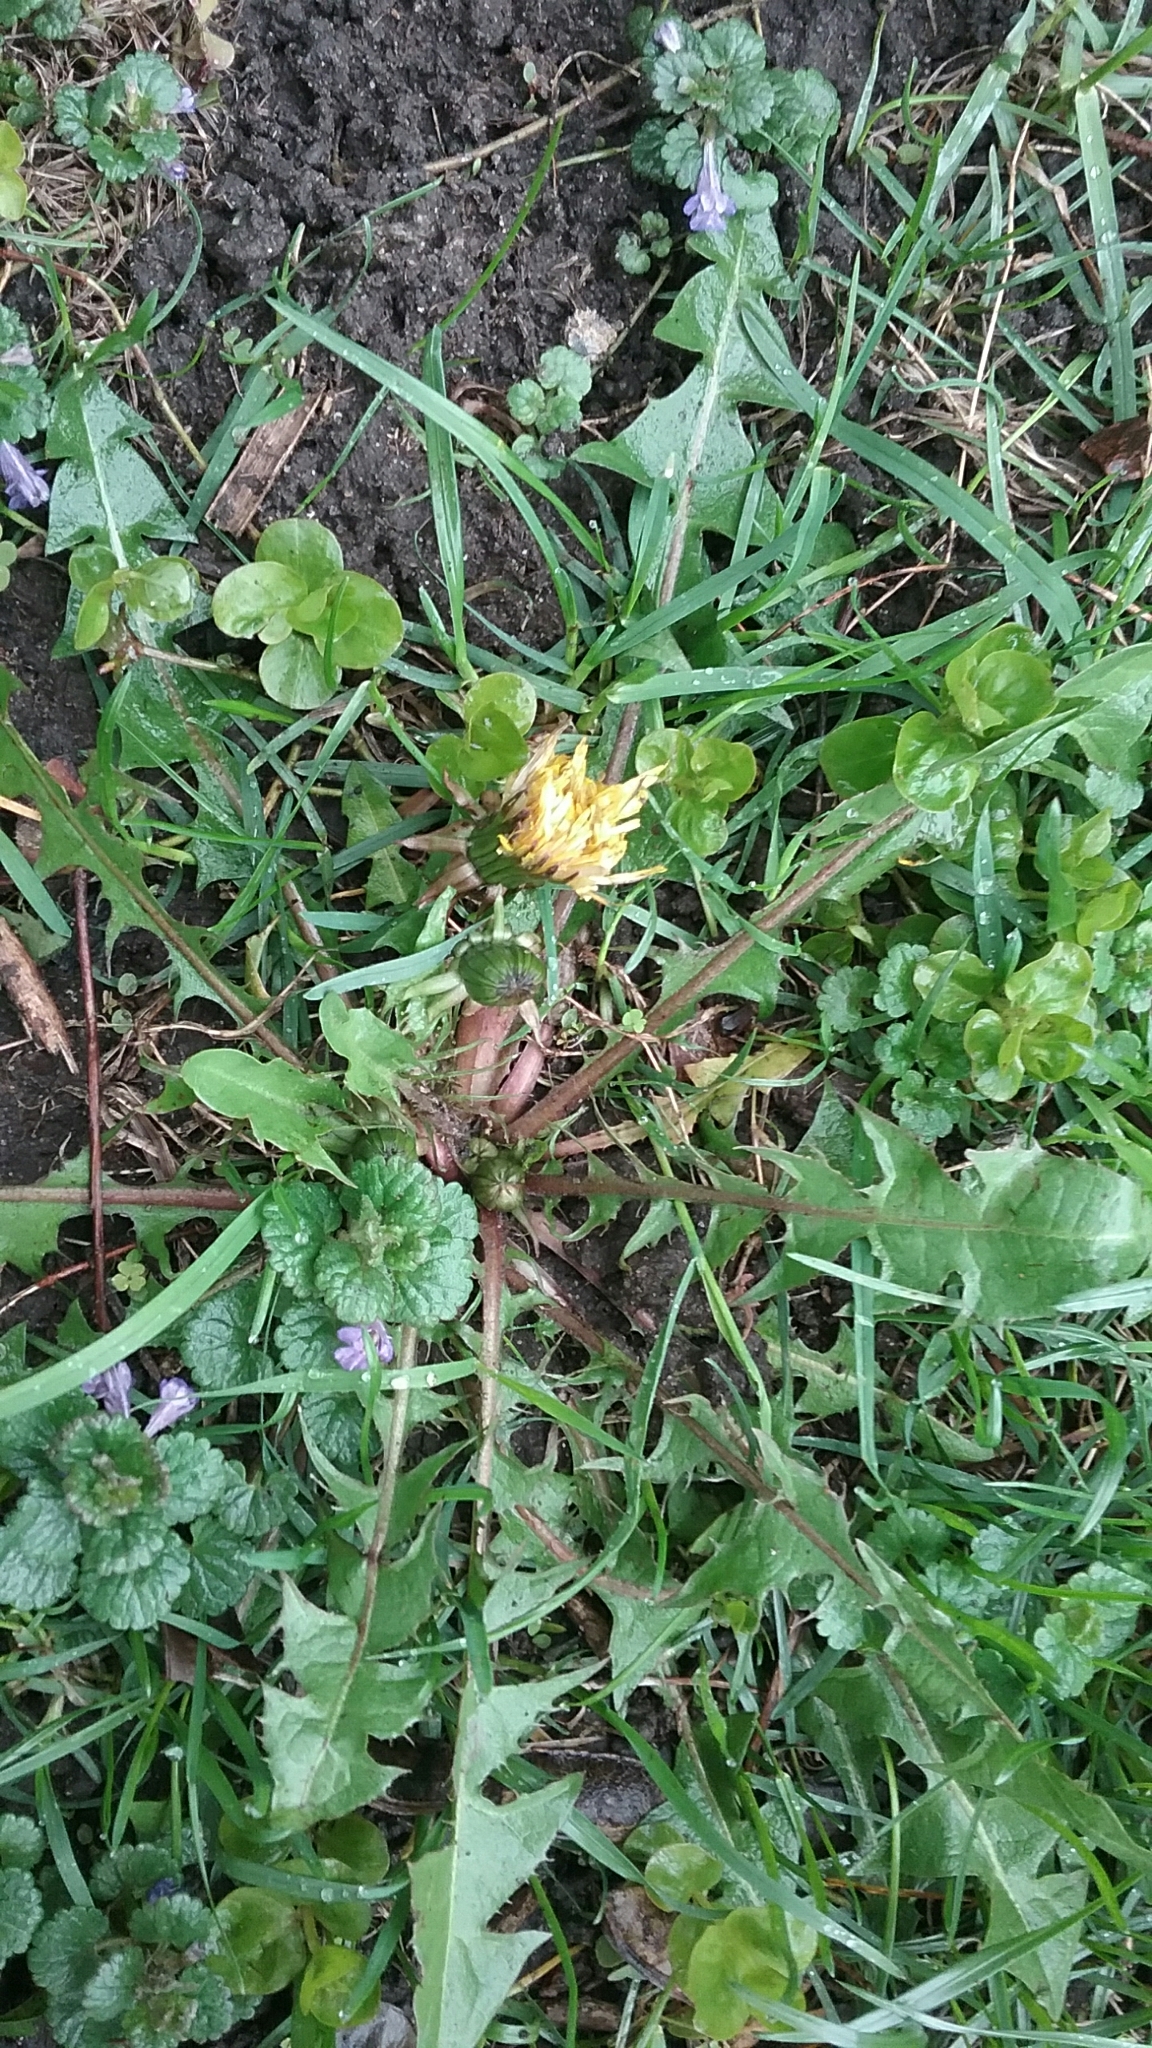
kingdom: Plantae
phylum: Tracheophyta
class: Magnoliopsida
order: Asterales
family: Asteraceae
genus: Taraxacum
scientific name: Taraxacum officinale
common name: Common dandelion
